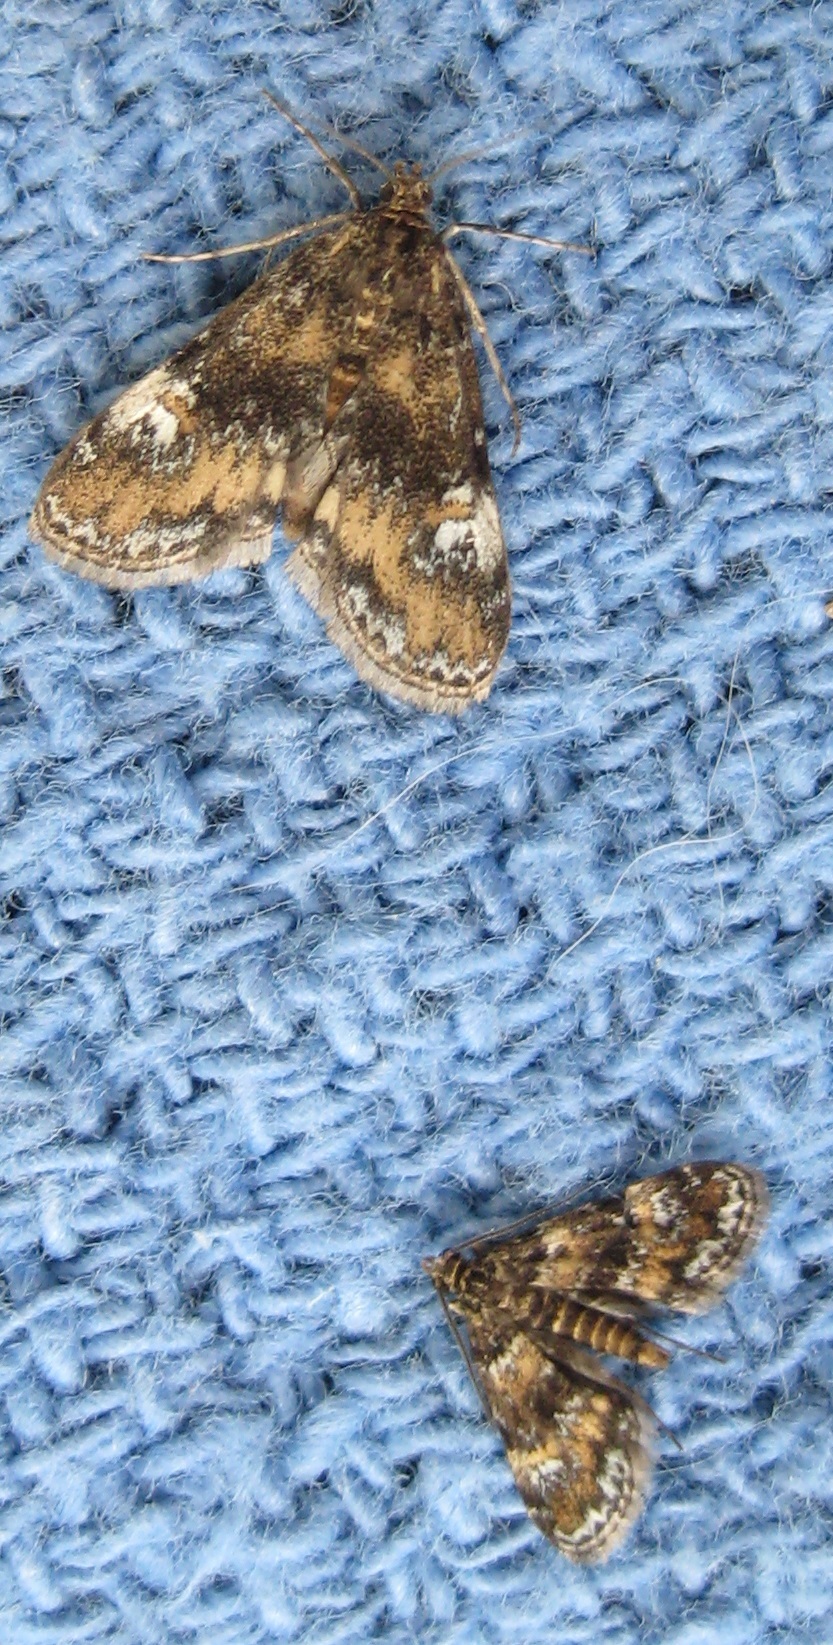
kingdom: Animalia
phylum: Arthropoda
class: Insecta
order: Lepidoptera
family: Crambidae
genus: Elophila
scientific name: Elophila obliteralis
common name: Waterlily leafcutter moth
